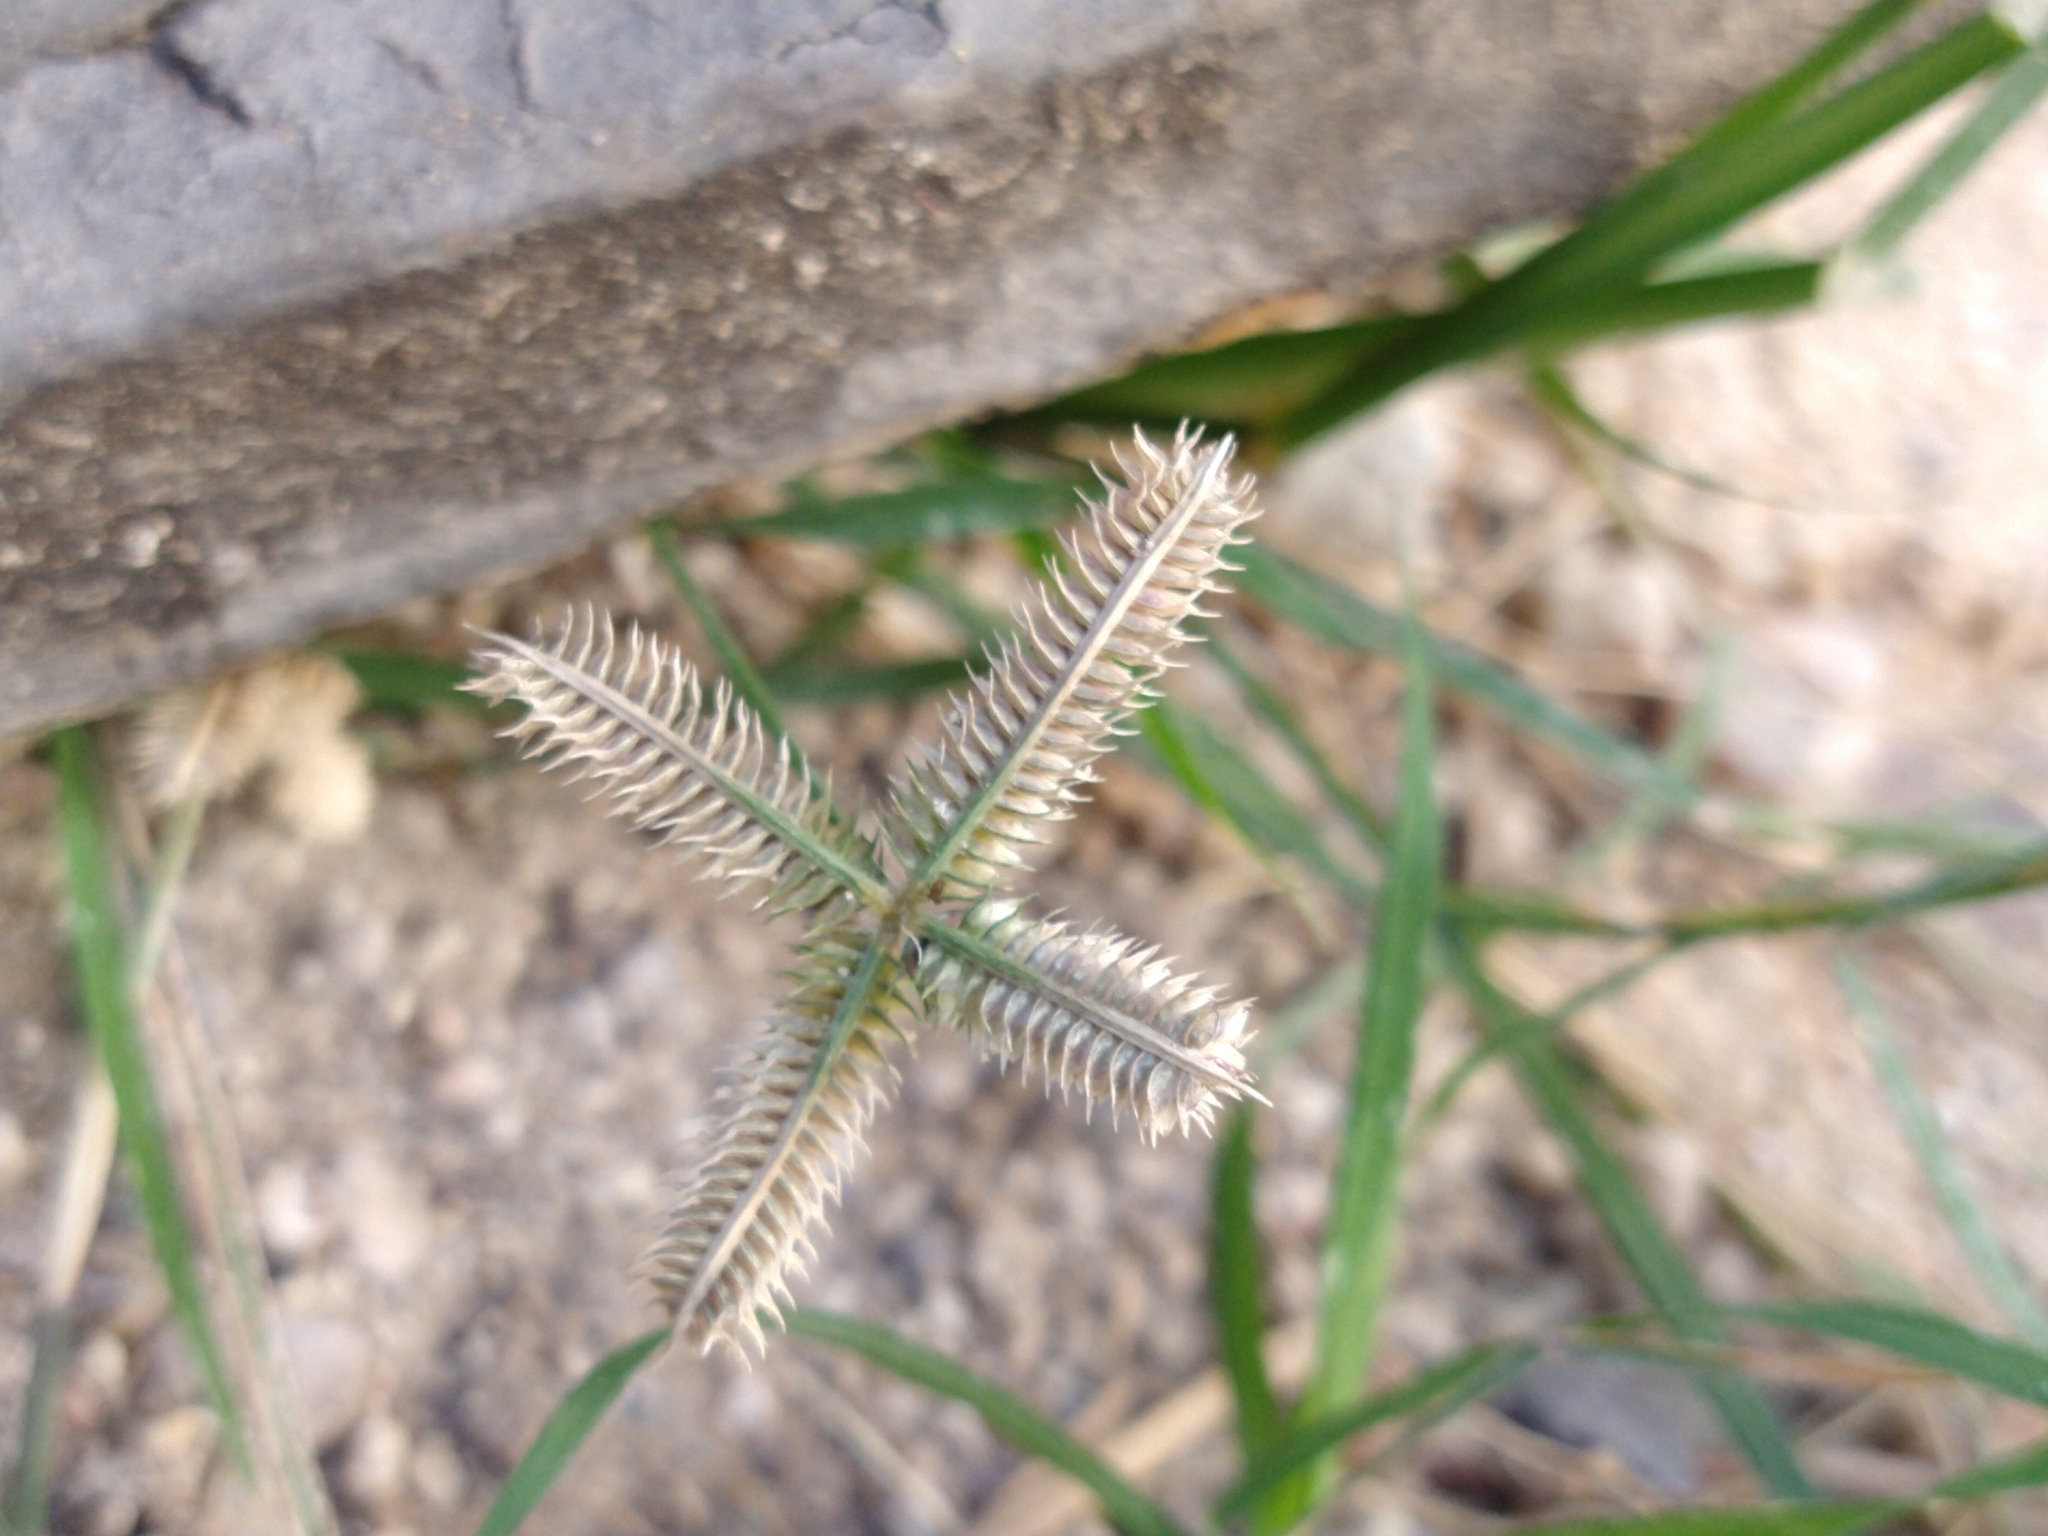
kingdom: Plantae
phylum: Tracheophyta
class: Liliopsida
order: Poales
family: Poaceae
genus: Dactyloctenium
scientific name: Dactyloctenium aegyptium
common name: Egyptian grass
